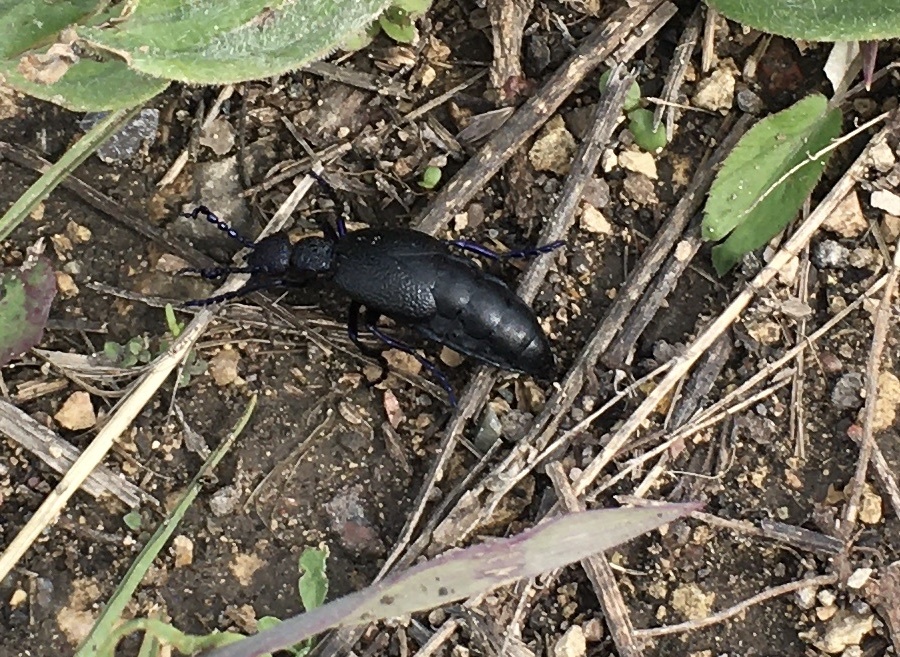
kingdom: Animalia
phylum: Arthropoda
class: Insecta
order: Coleoptera
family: Meloidae
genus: Meloe
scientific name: Meloe proscarabaeus
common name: Black oil-beetle
